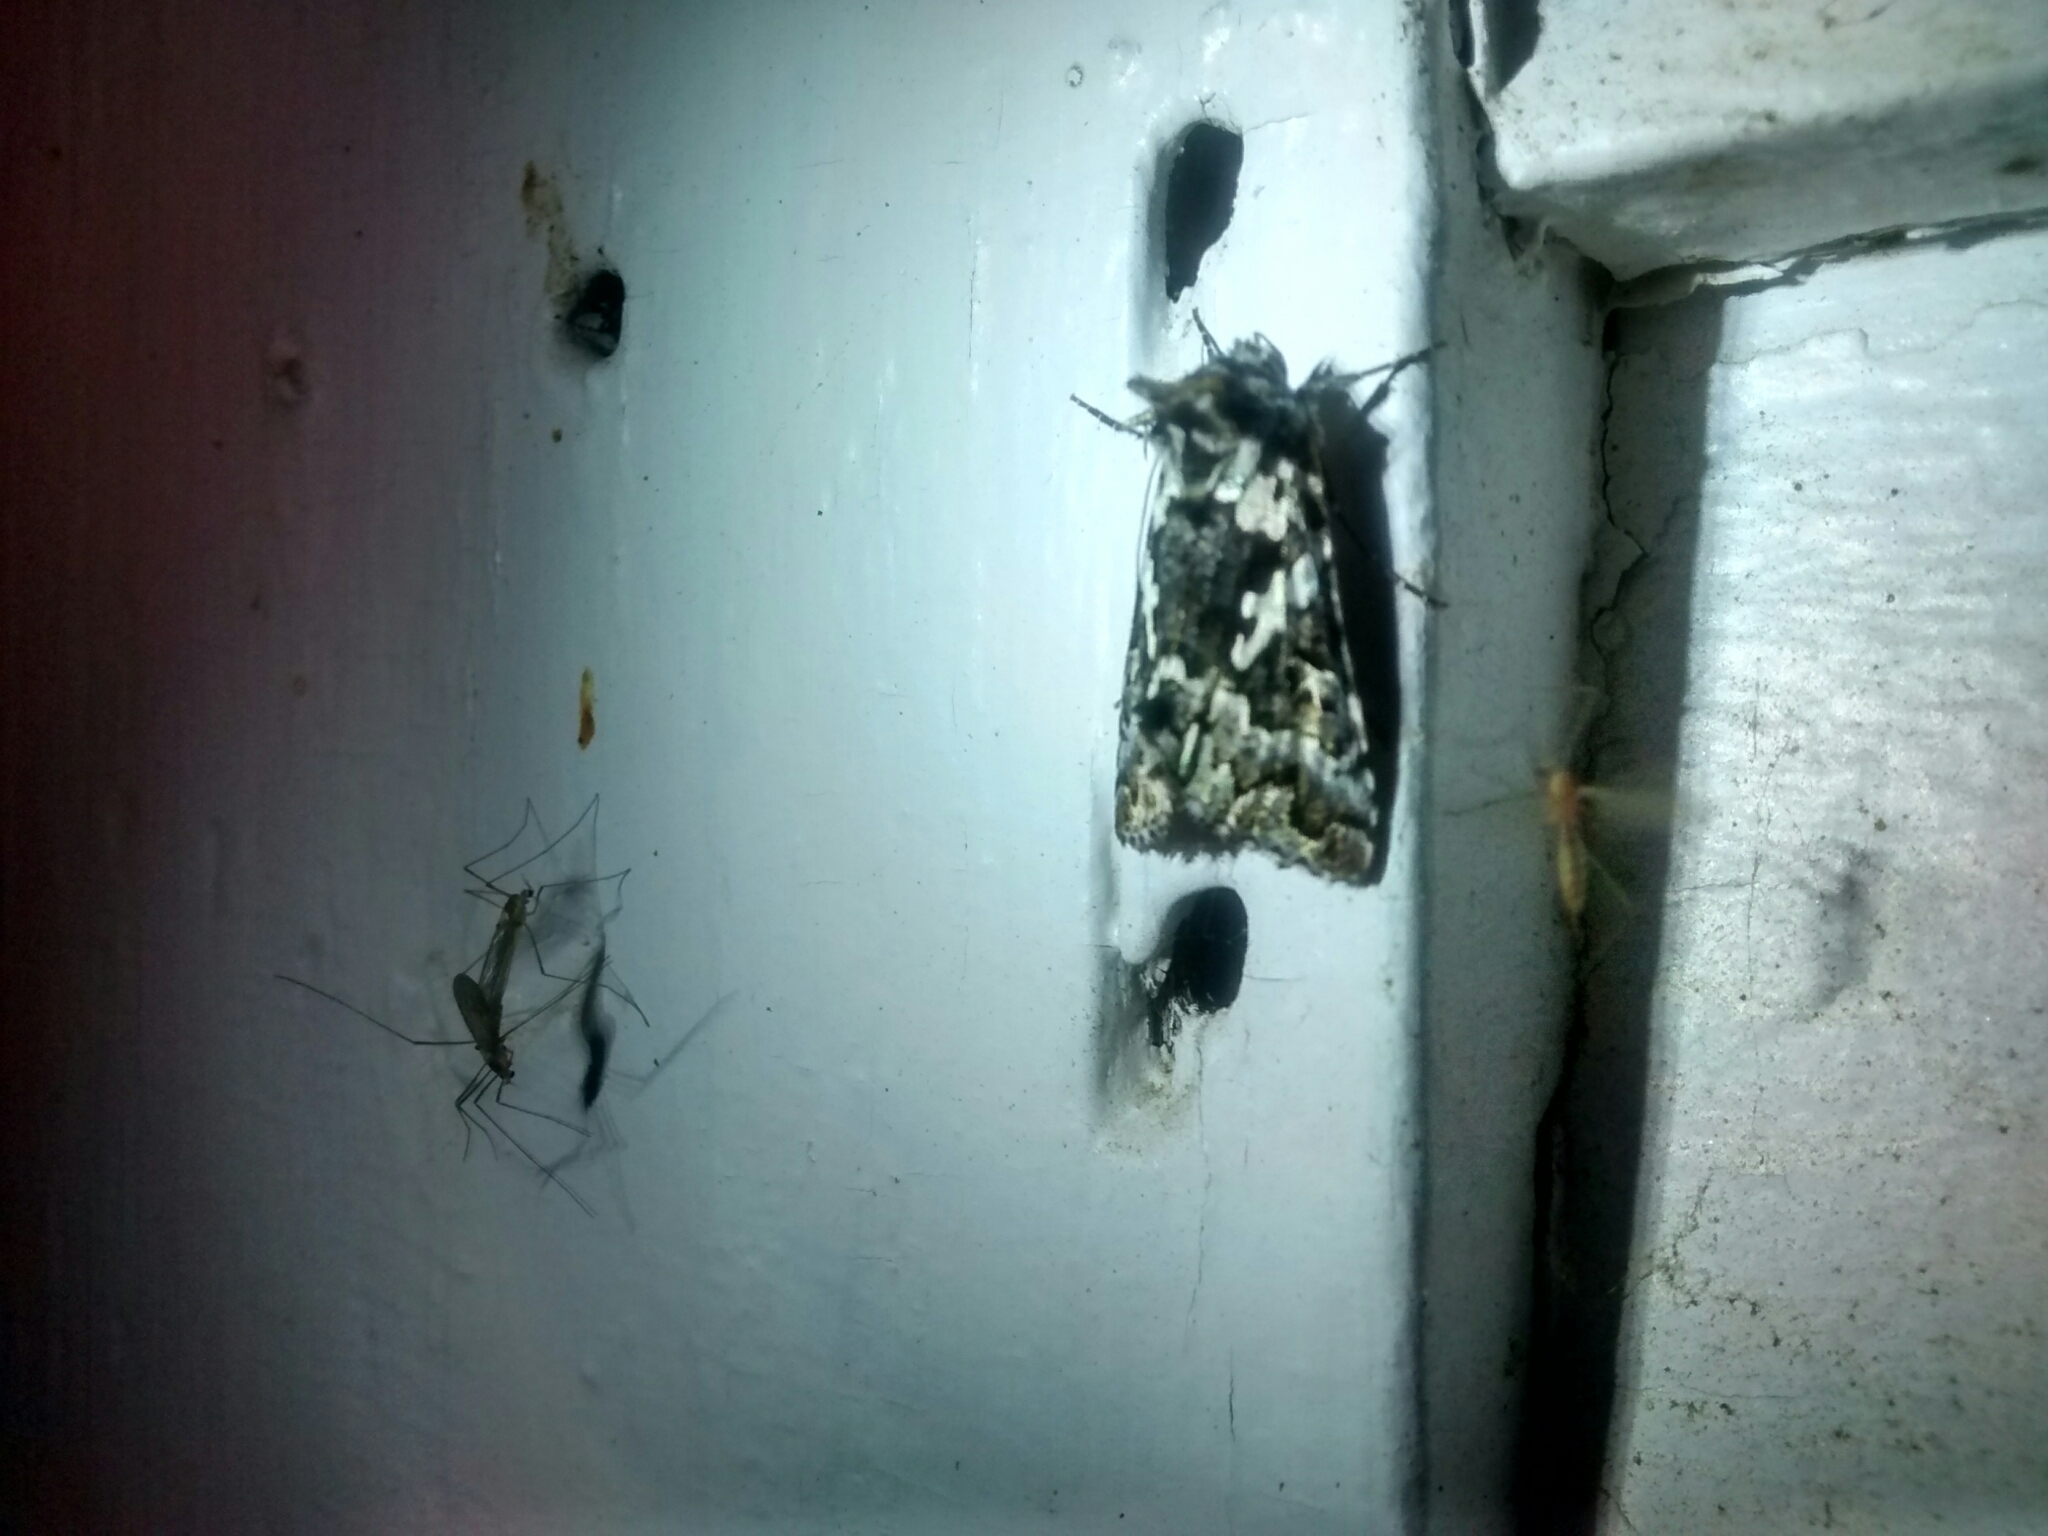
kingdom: Animalia
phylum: Arthropoda
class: Insecta
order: Lepidoptera
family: Noctuidae
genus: Syngrapha
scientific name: Syngrapha rectangula
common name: Angulated cutworm
